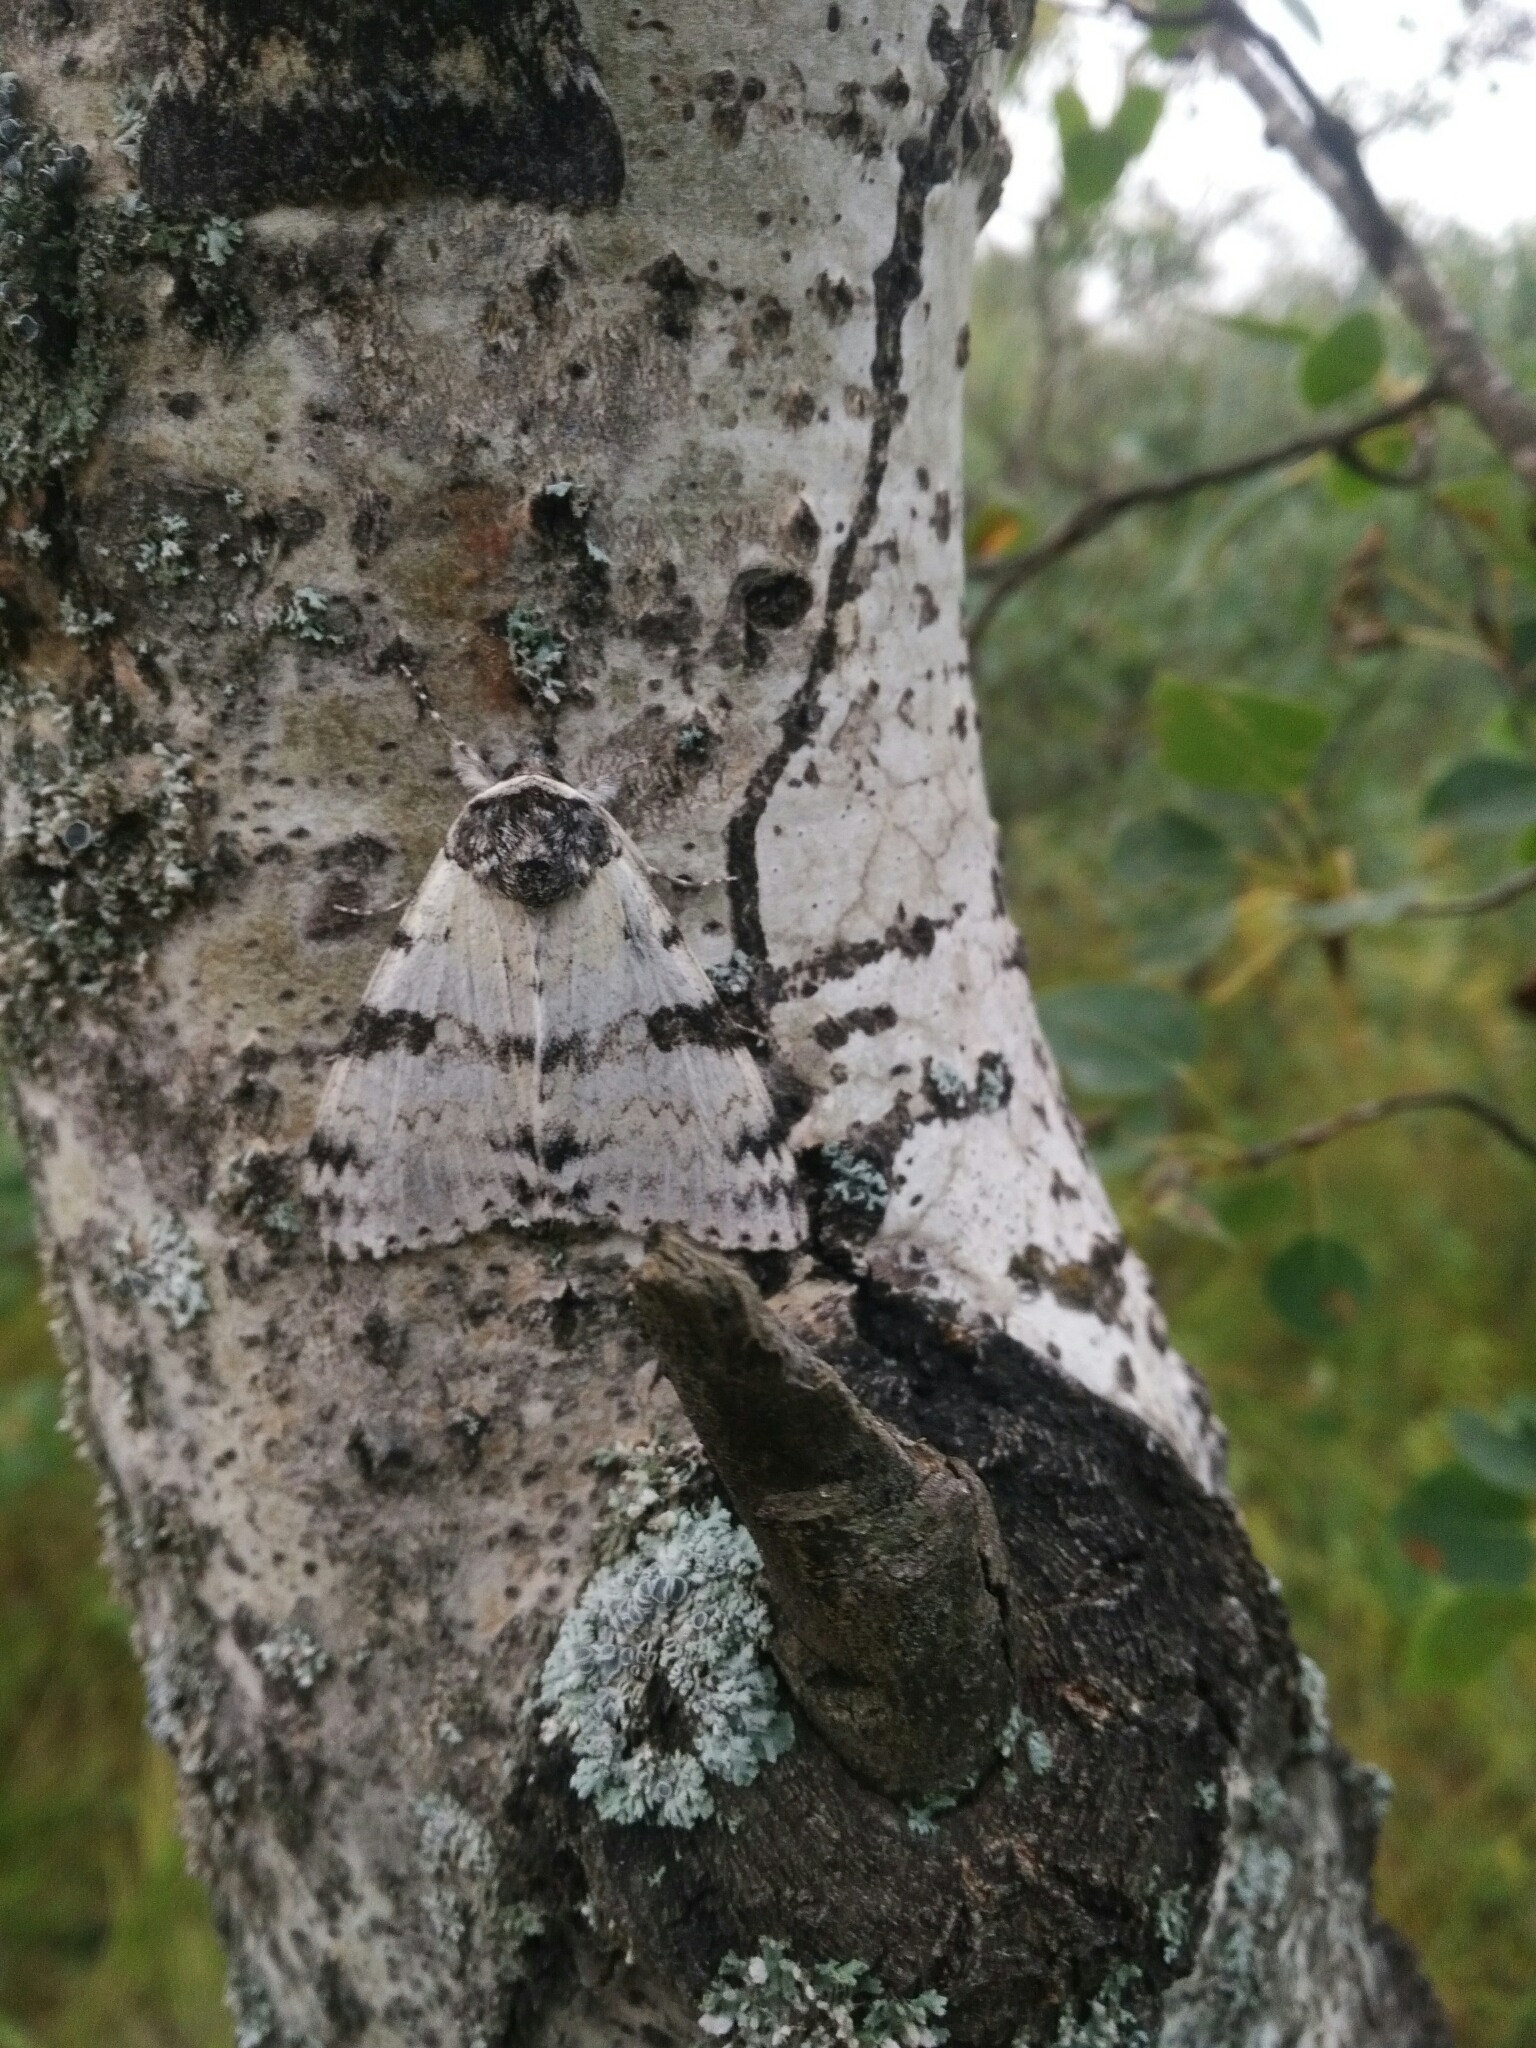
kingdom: Animalia
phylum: Arthropoda
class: Insecta
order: Lepidoptera
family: Erebidae
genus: Catocala
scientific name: Catocala relicta
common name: White underwing
